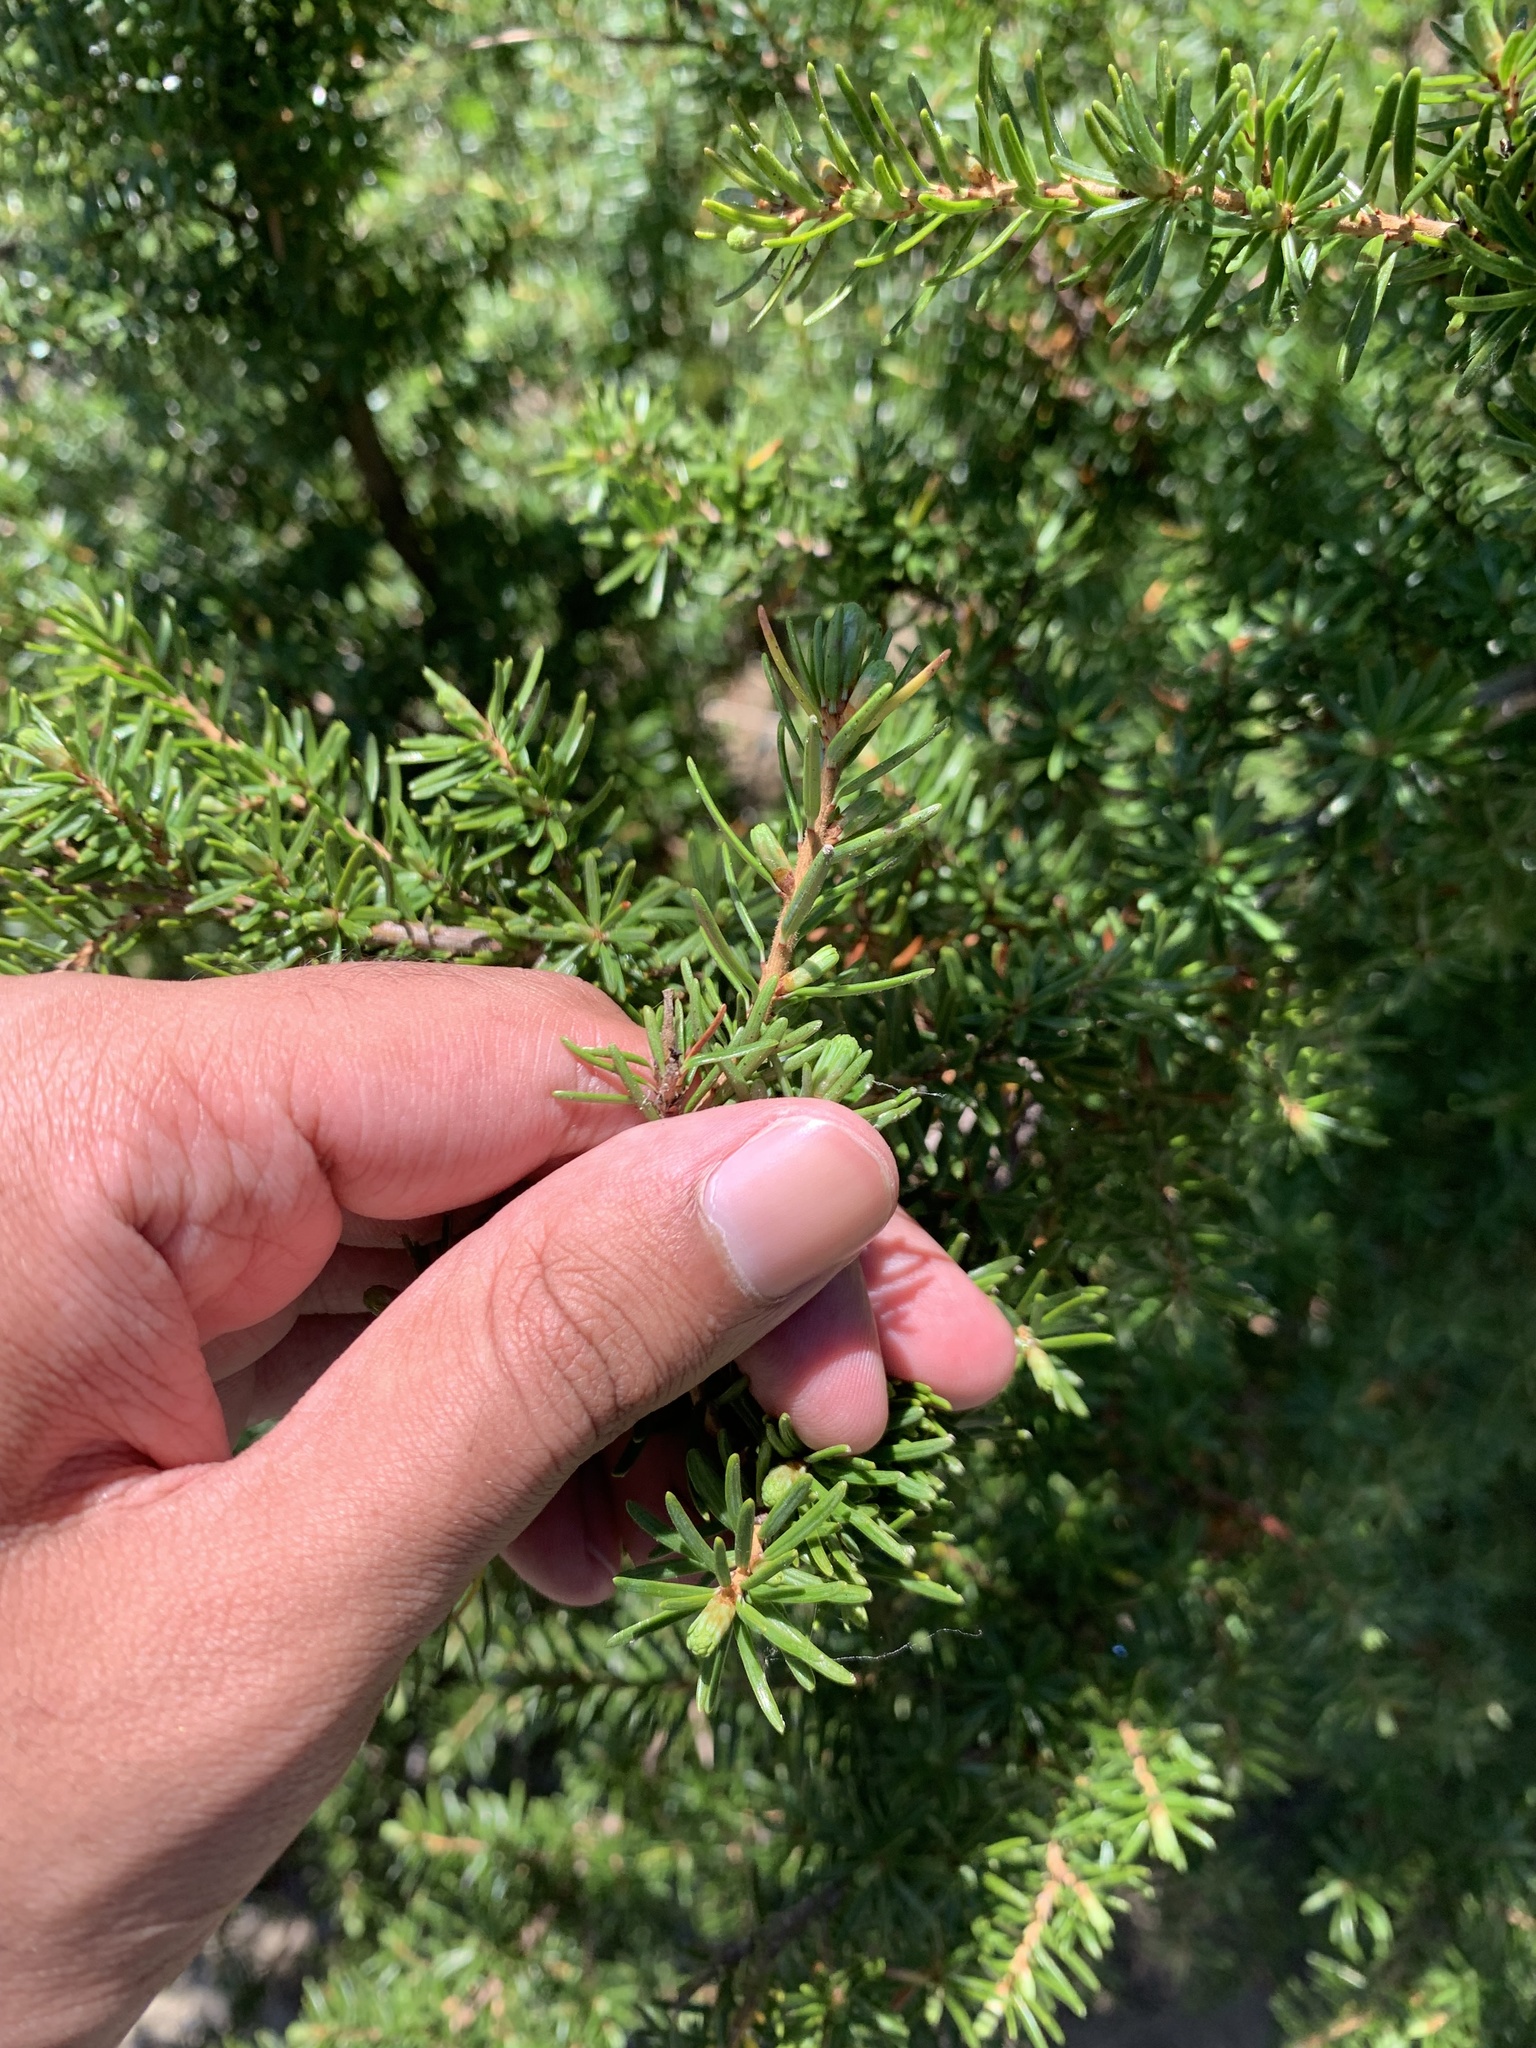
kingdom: Plantae
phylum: Tracheophyta
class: Pinopsida
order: Pinales
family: Pinaceae
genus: Tsuga
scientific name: Tsuga mertensiana
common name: Mountain hemlock
